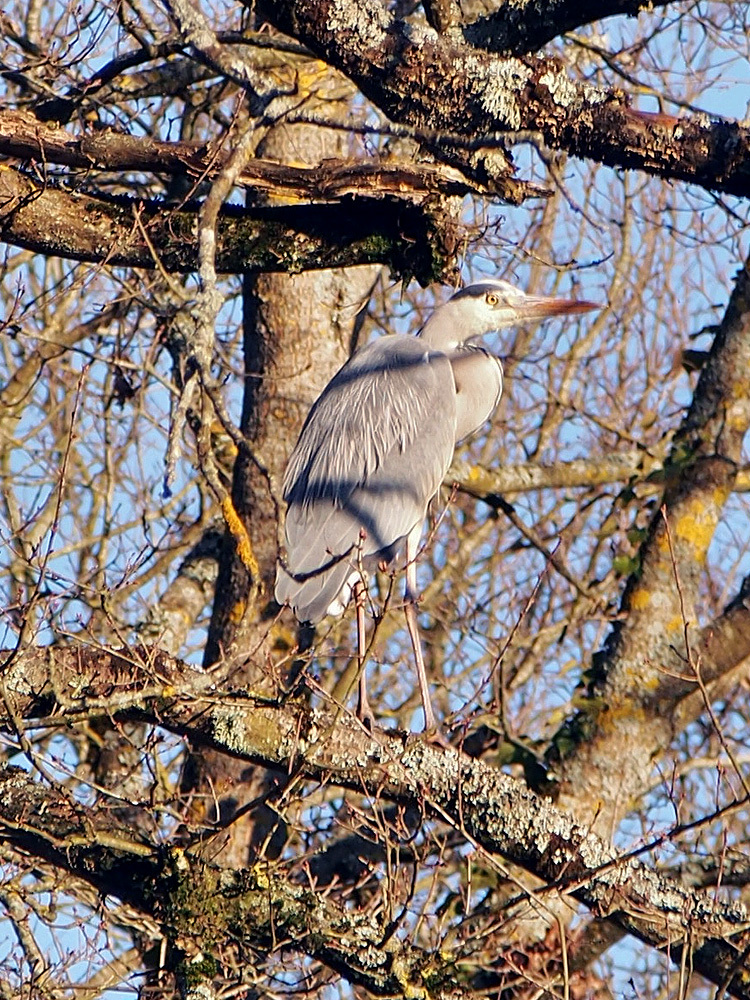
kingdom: Animalia
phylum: Chordata
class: Aves
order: Pelecaniformes
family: Ardeidae
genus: Ardea
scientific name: Ardea cinerea
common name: Grey heron
